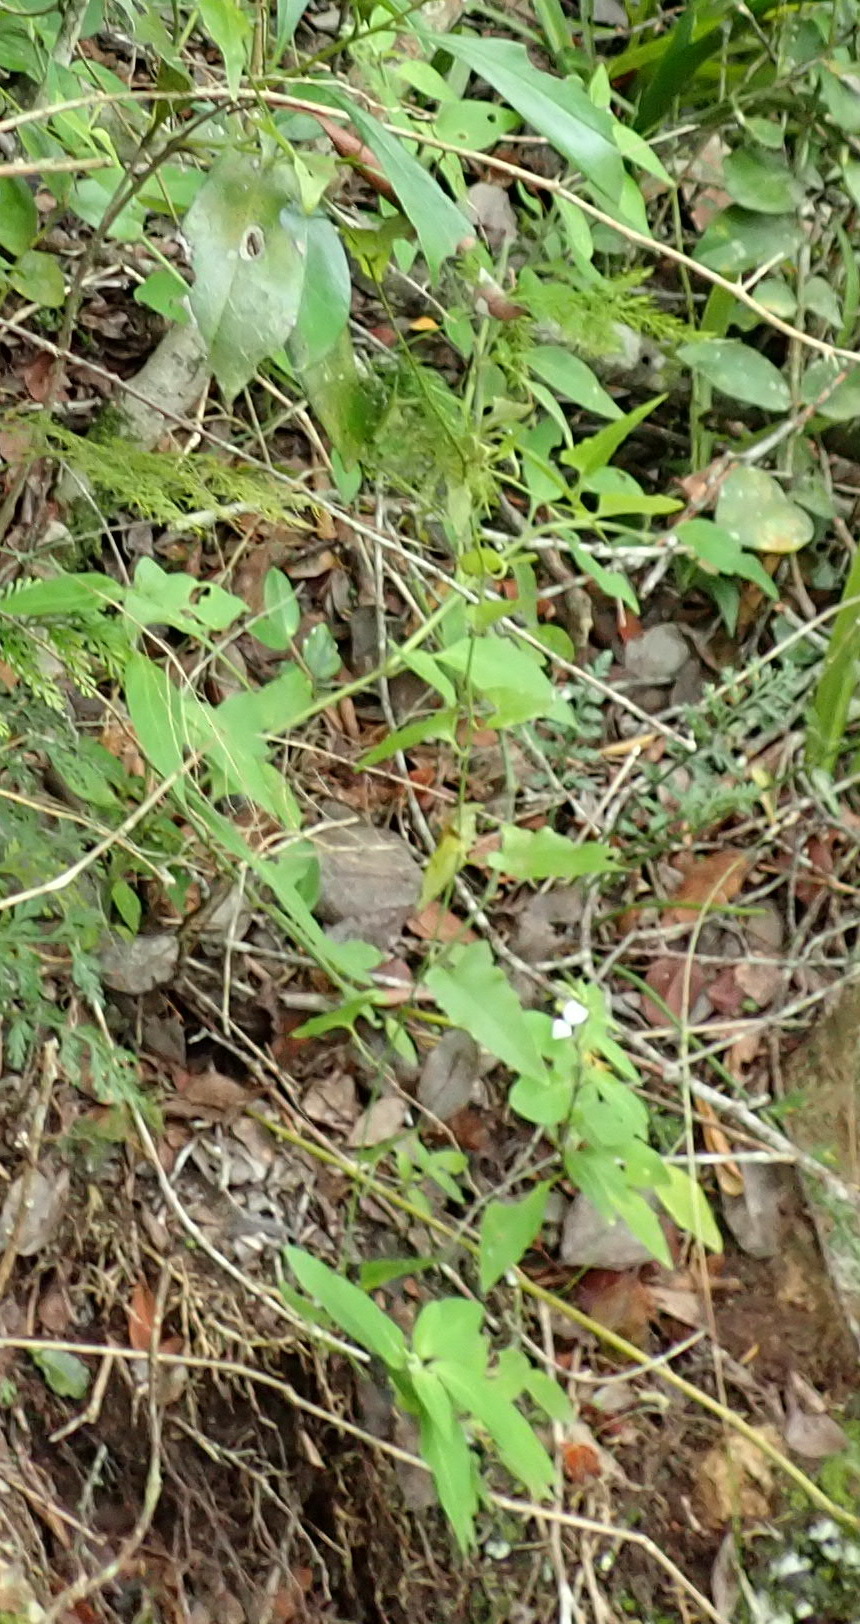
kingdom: Plantae
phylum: Tracheophyta
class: Magnoliopsida
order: Lamiales
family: Acanthaceae
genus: Hypoestes
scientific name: Hypoestes forskaolii
